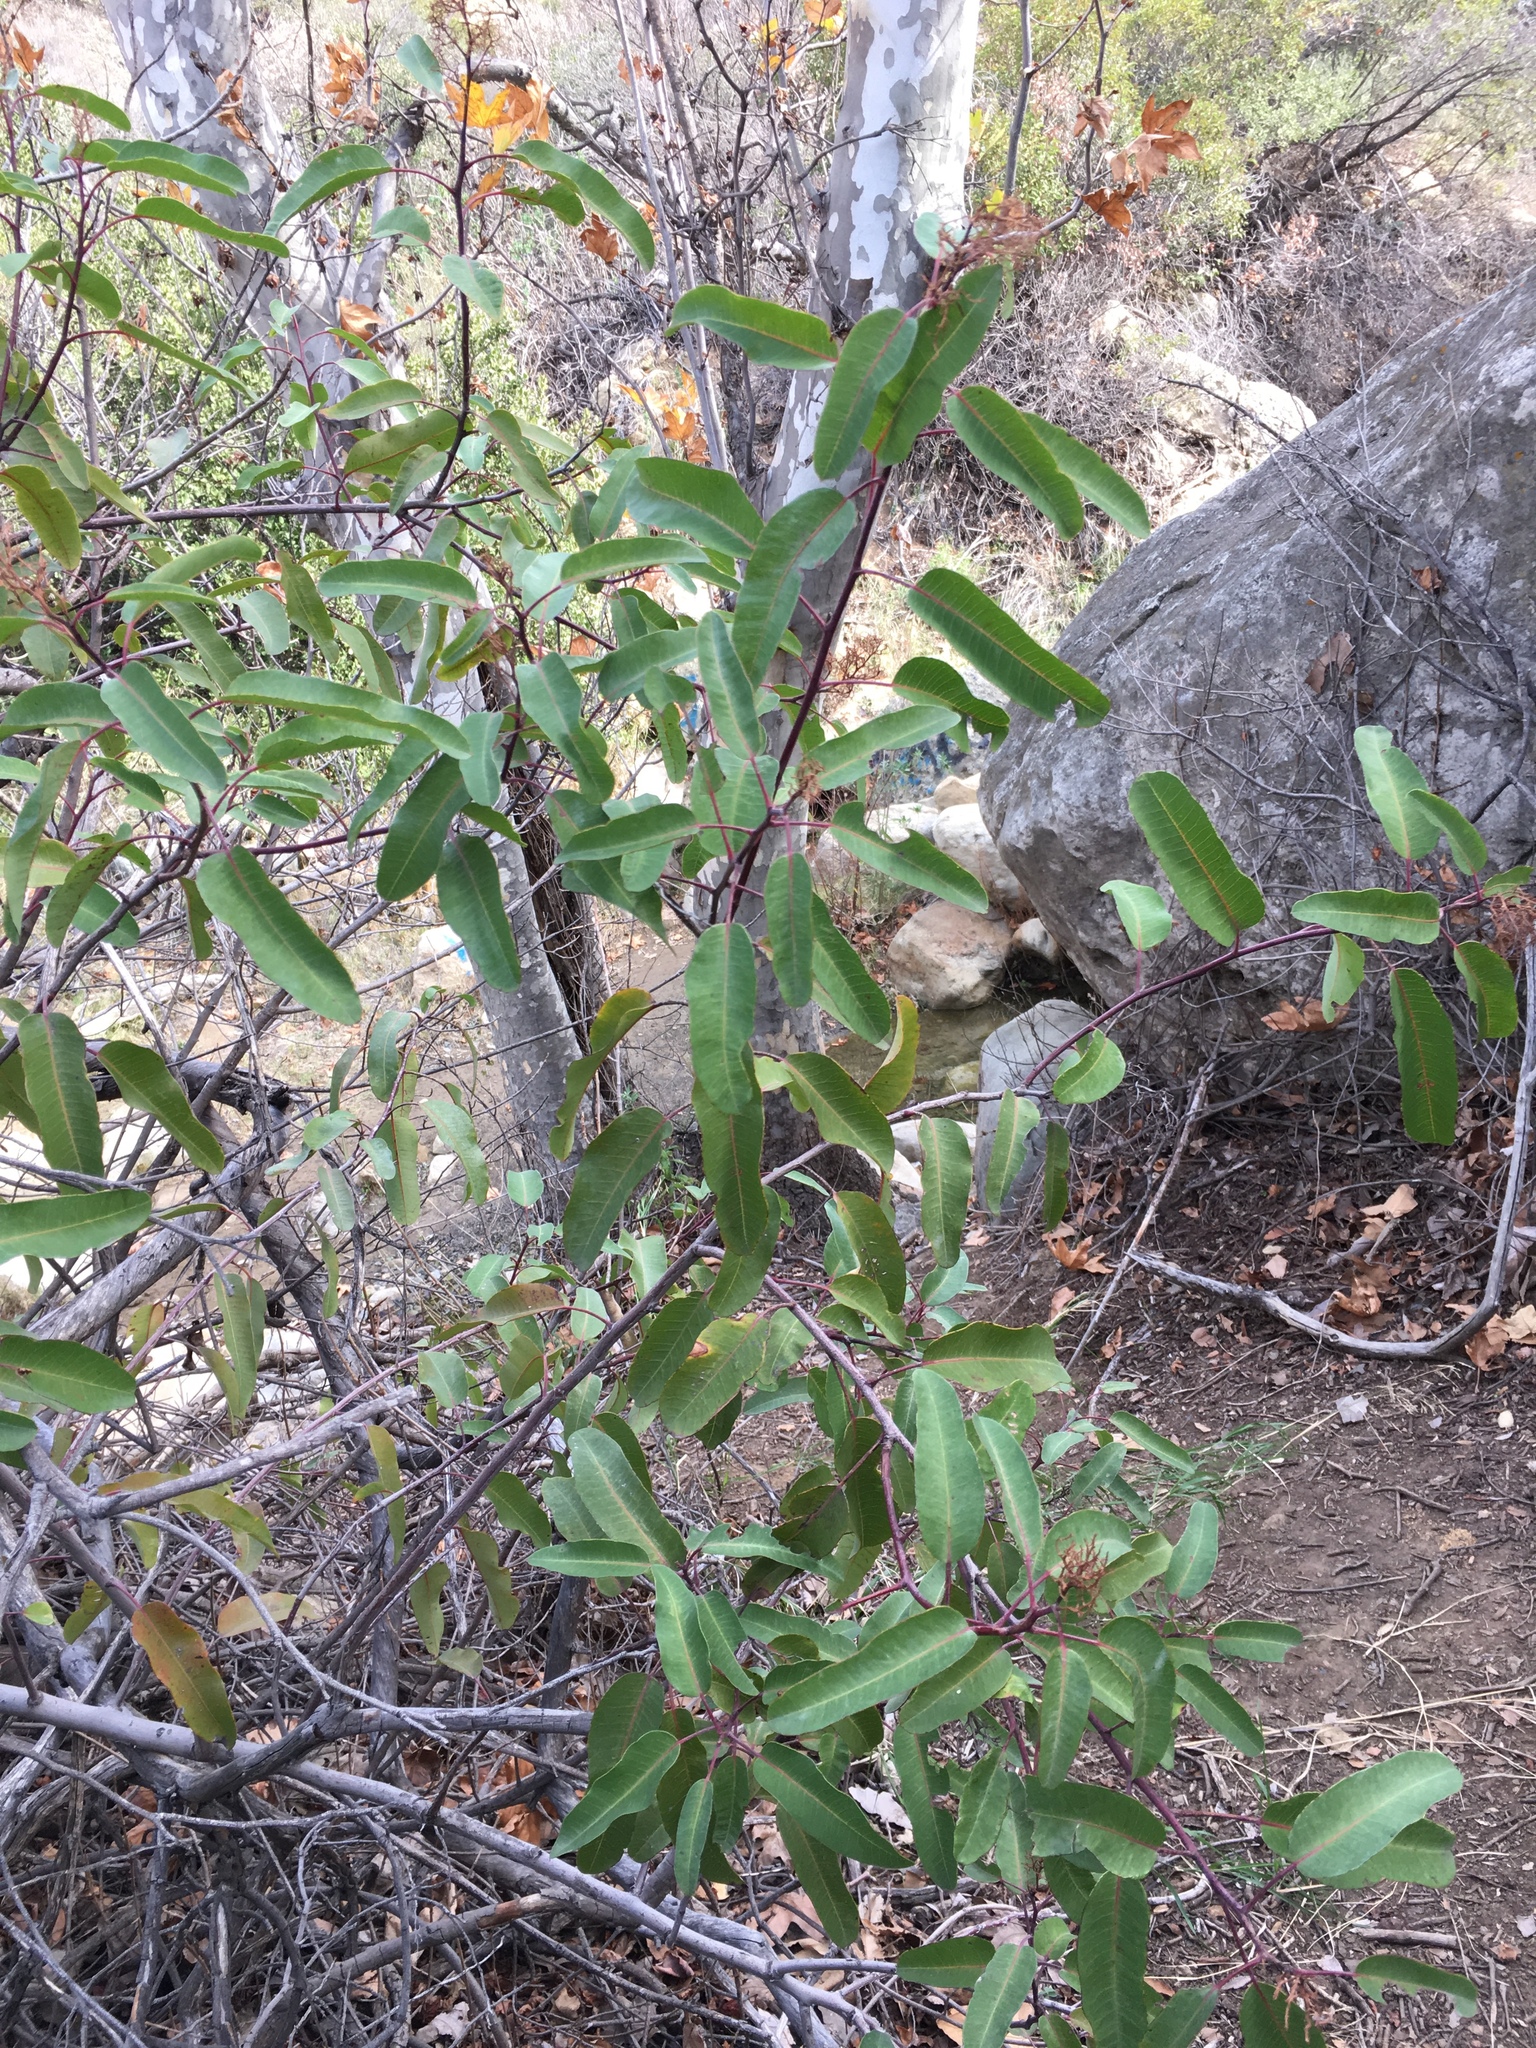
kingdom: Plantae
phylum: Tracheophyta
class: Magnoliopsida
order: Sapindales
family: Anacardiaceae
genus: Malosma
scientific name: Malosma laurina
